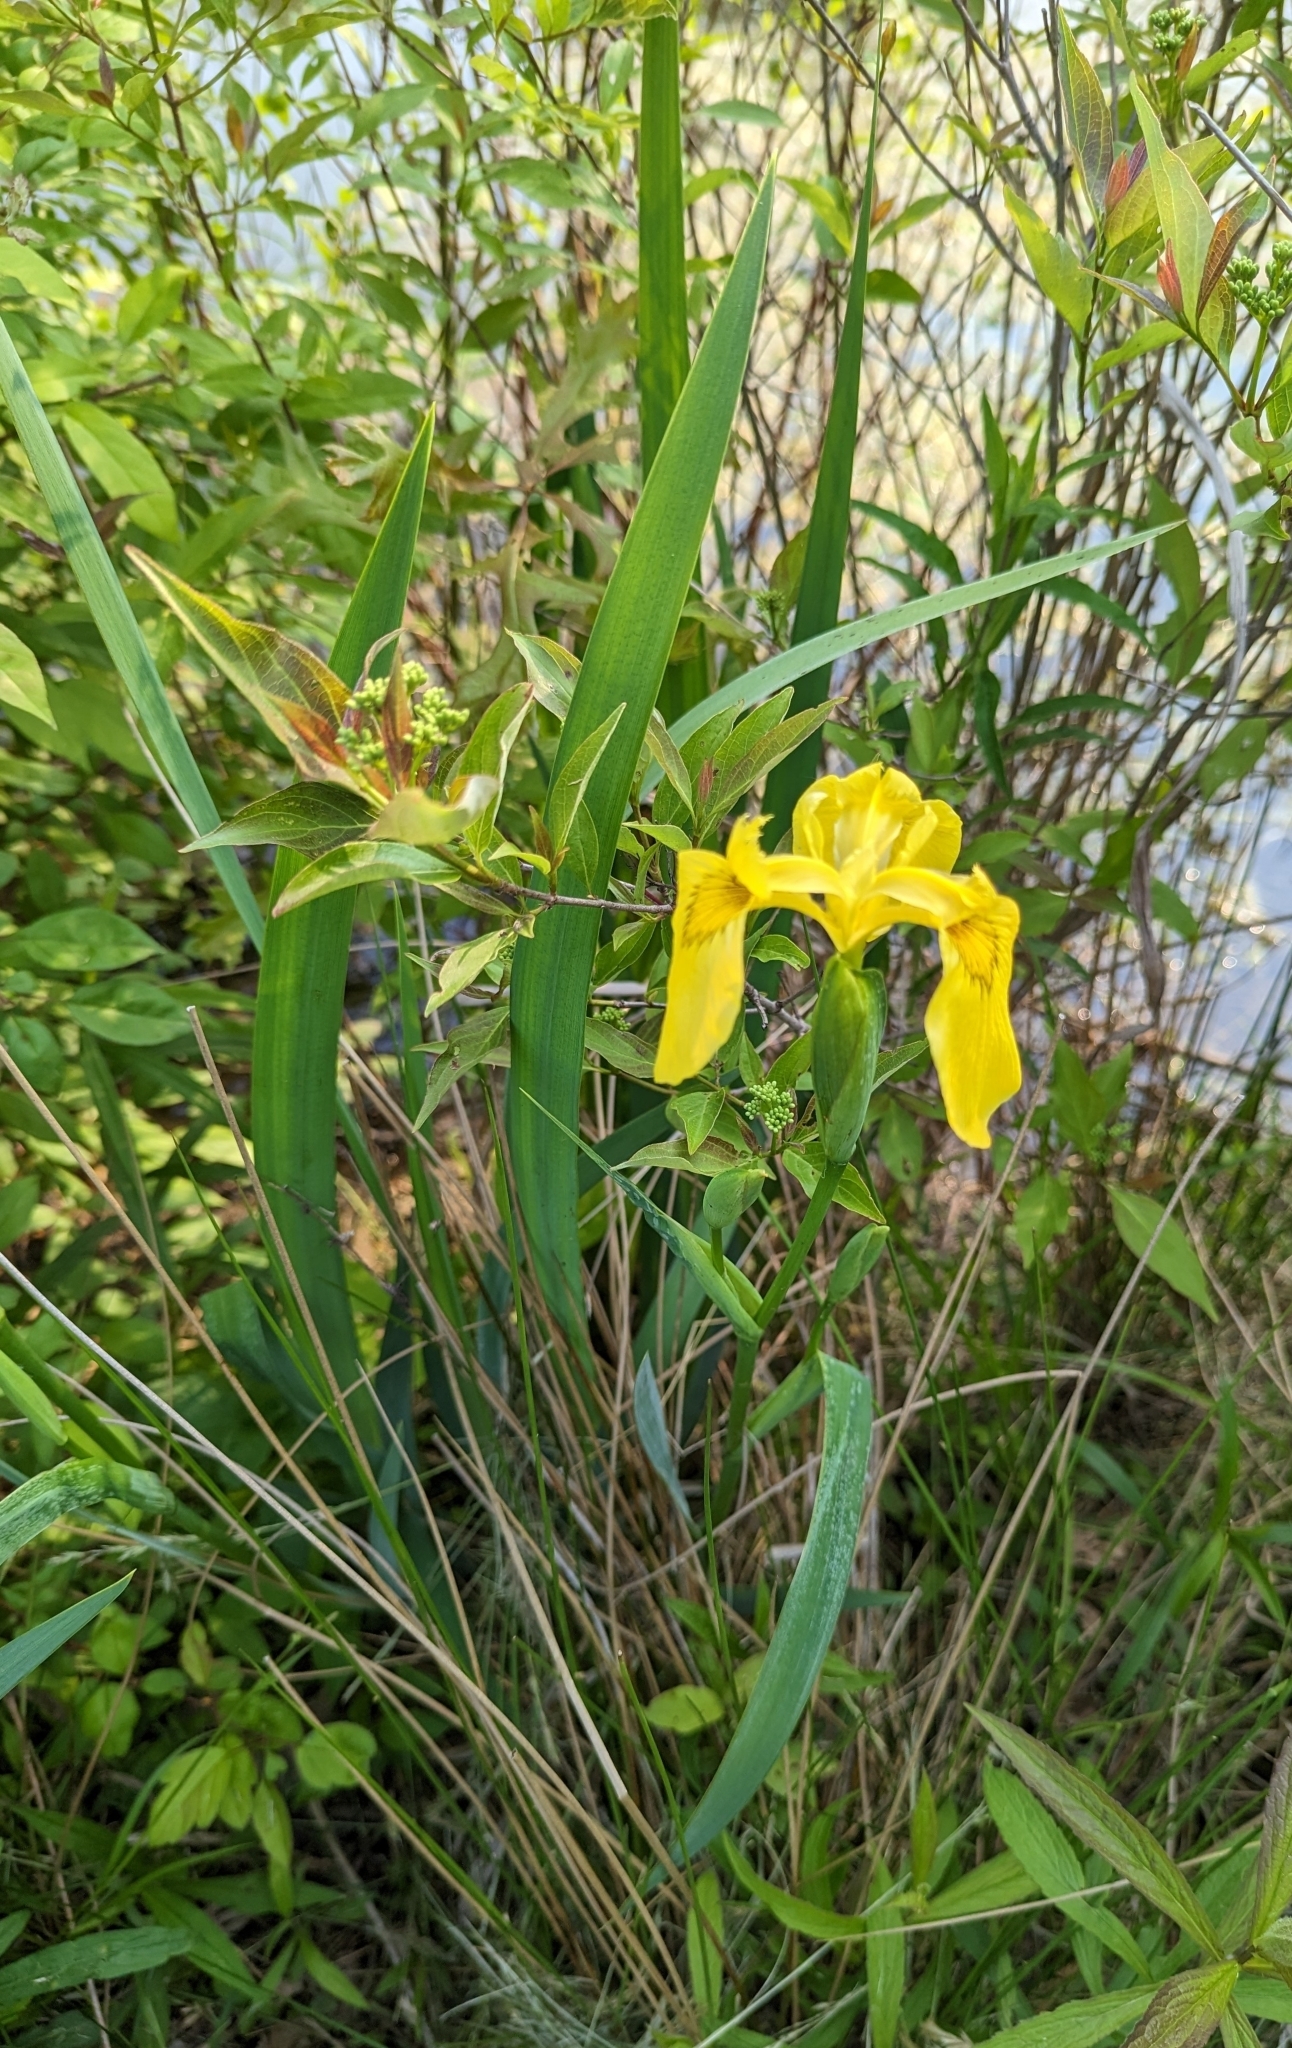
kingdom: Plantae
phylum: Tracheophyta
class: Liliopsida
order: Asparagales
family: Iridaceae
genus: Iris
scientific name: Iris pseudacorus
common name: Yellow flag
